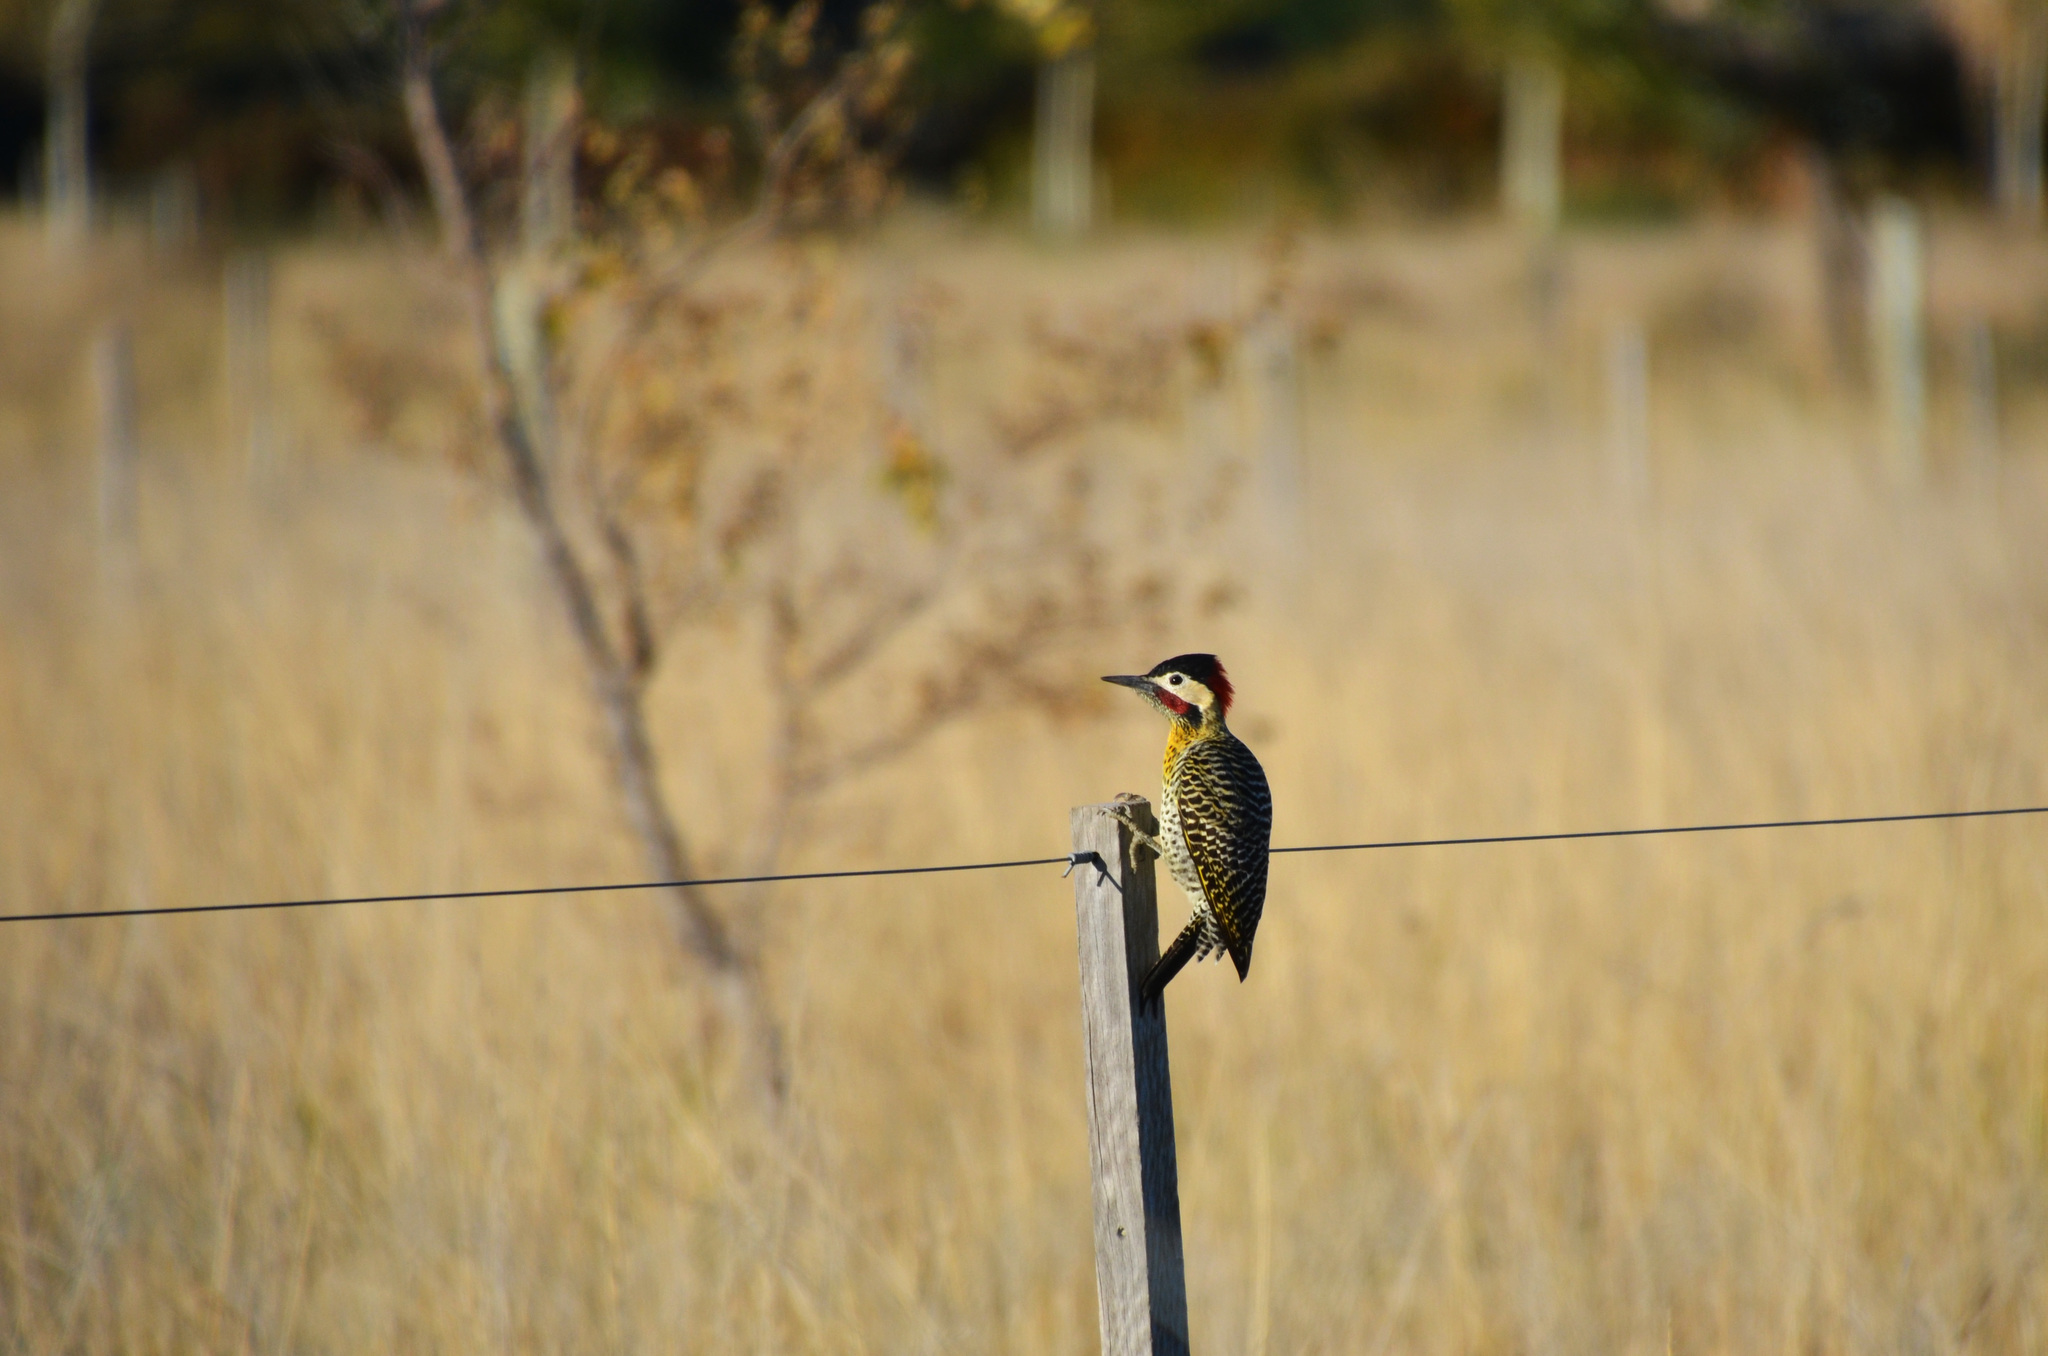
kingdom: Animalia
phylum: Chordata
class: Aves
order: Piciformes
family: Picidae
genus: Colaptes
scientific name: Colaptes melanochloros
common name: Green-barred woodpecker
